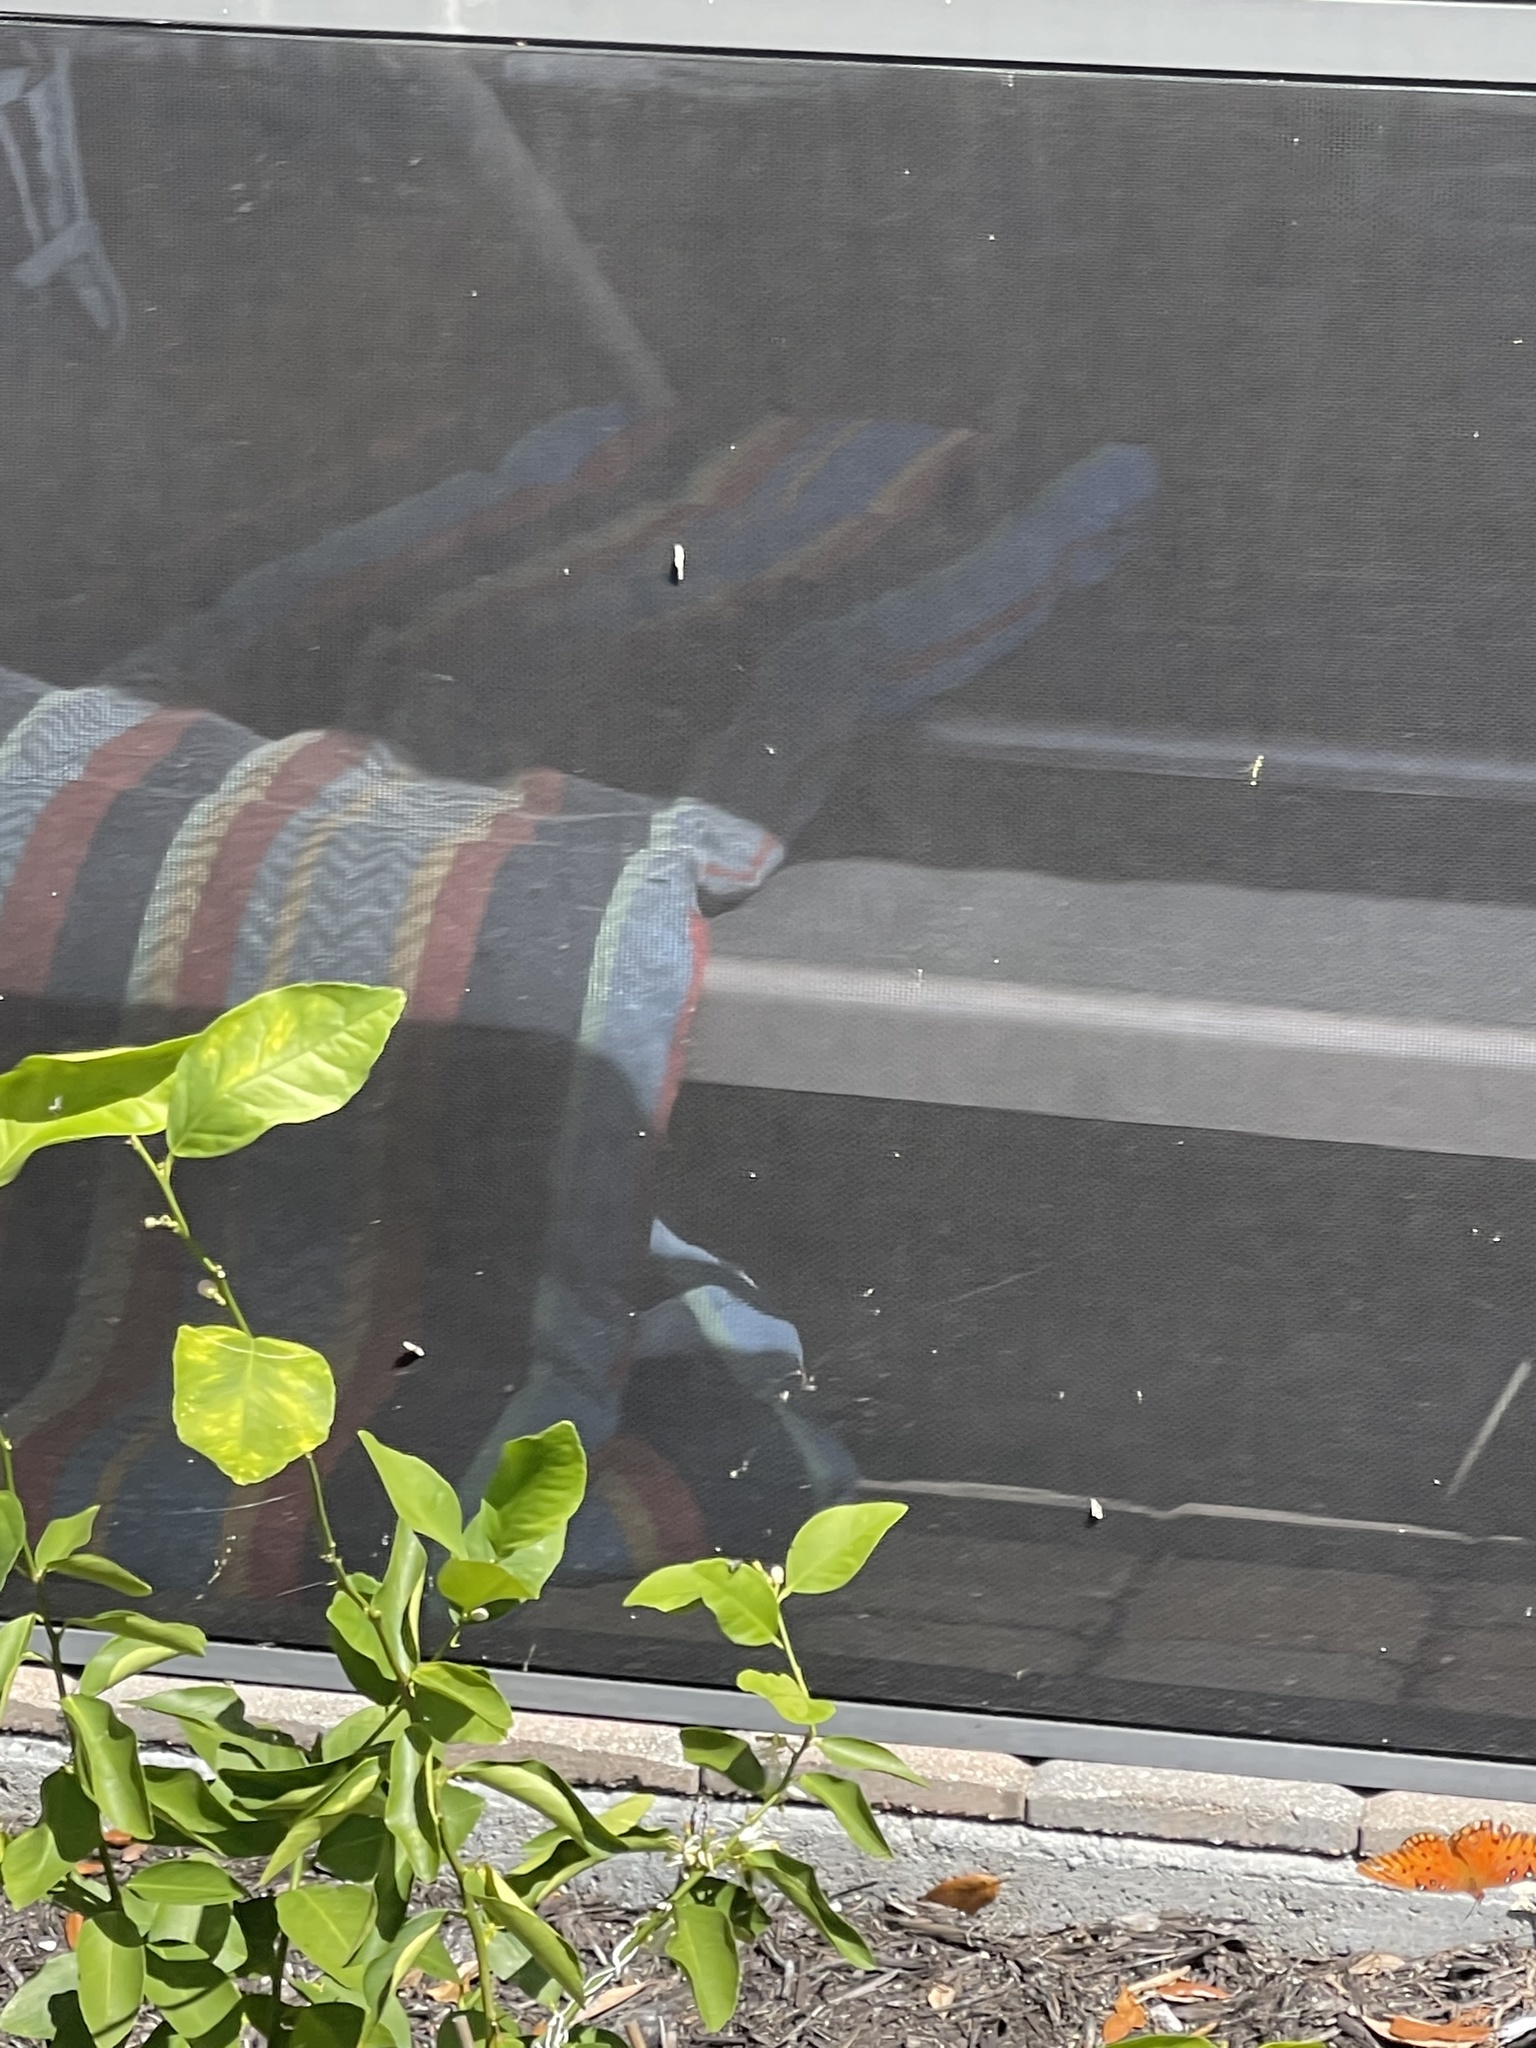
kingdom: Animalia
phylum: Arthropoda
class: Insecta
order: Lepidoptera
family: Nymphalidae
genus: Dione
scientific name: Dione vanillae
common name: Gulf fritillary
